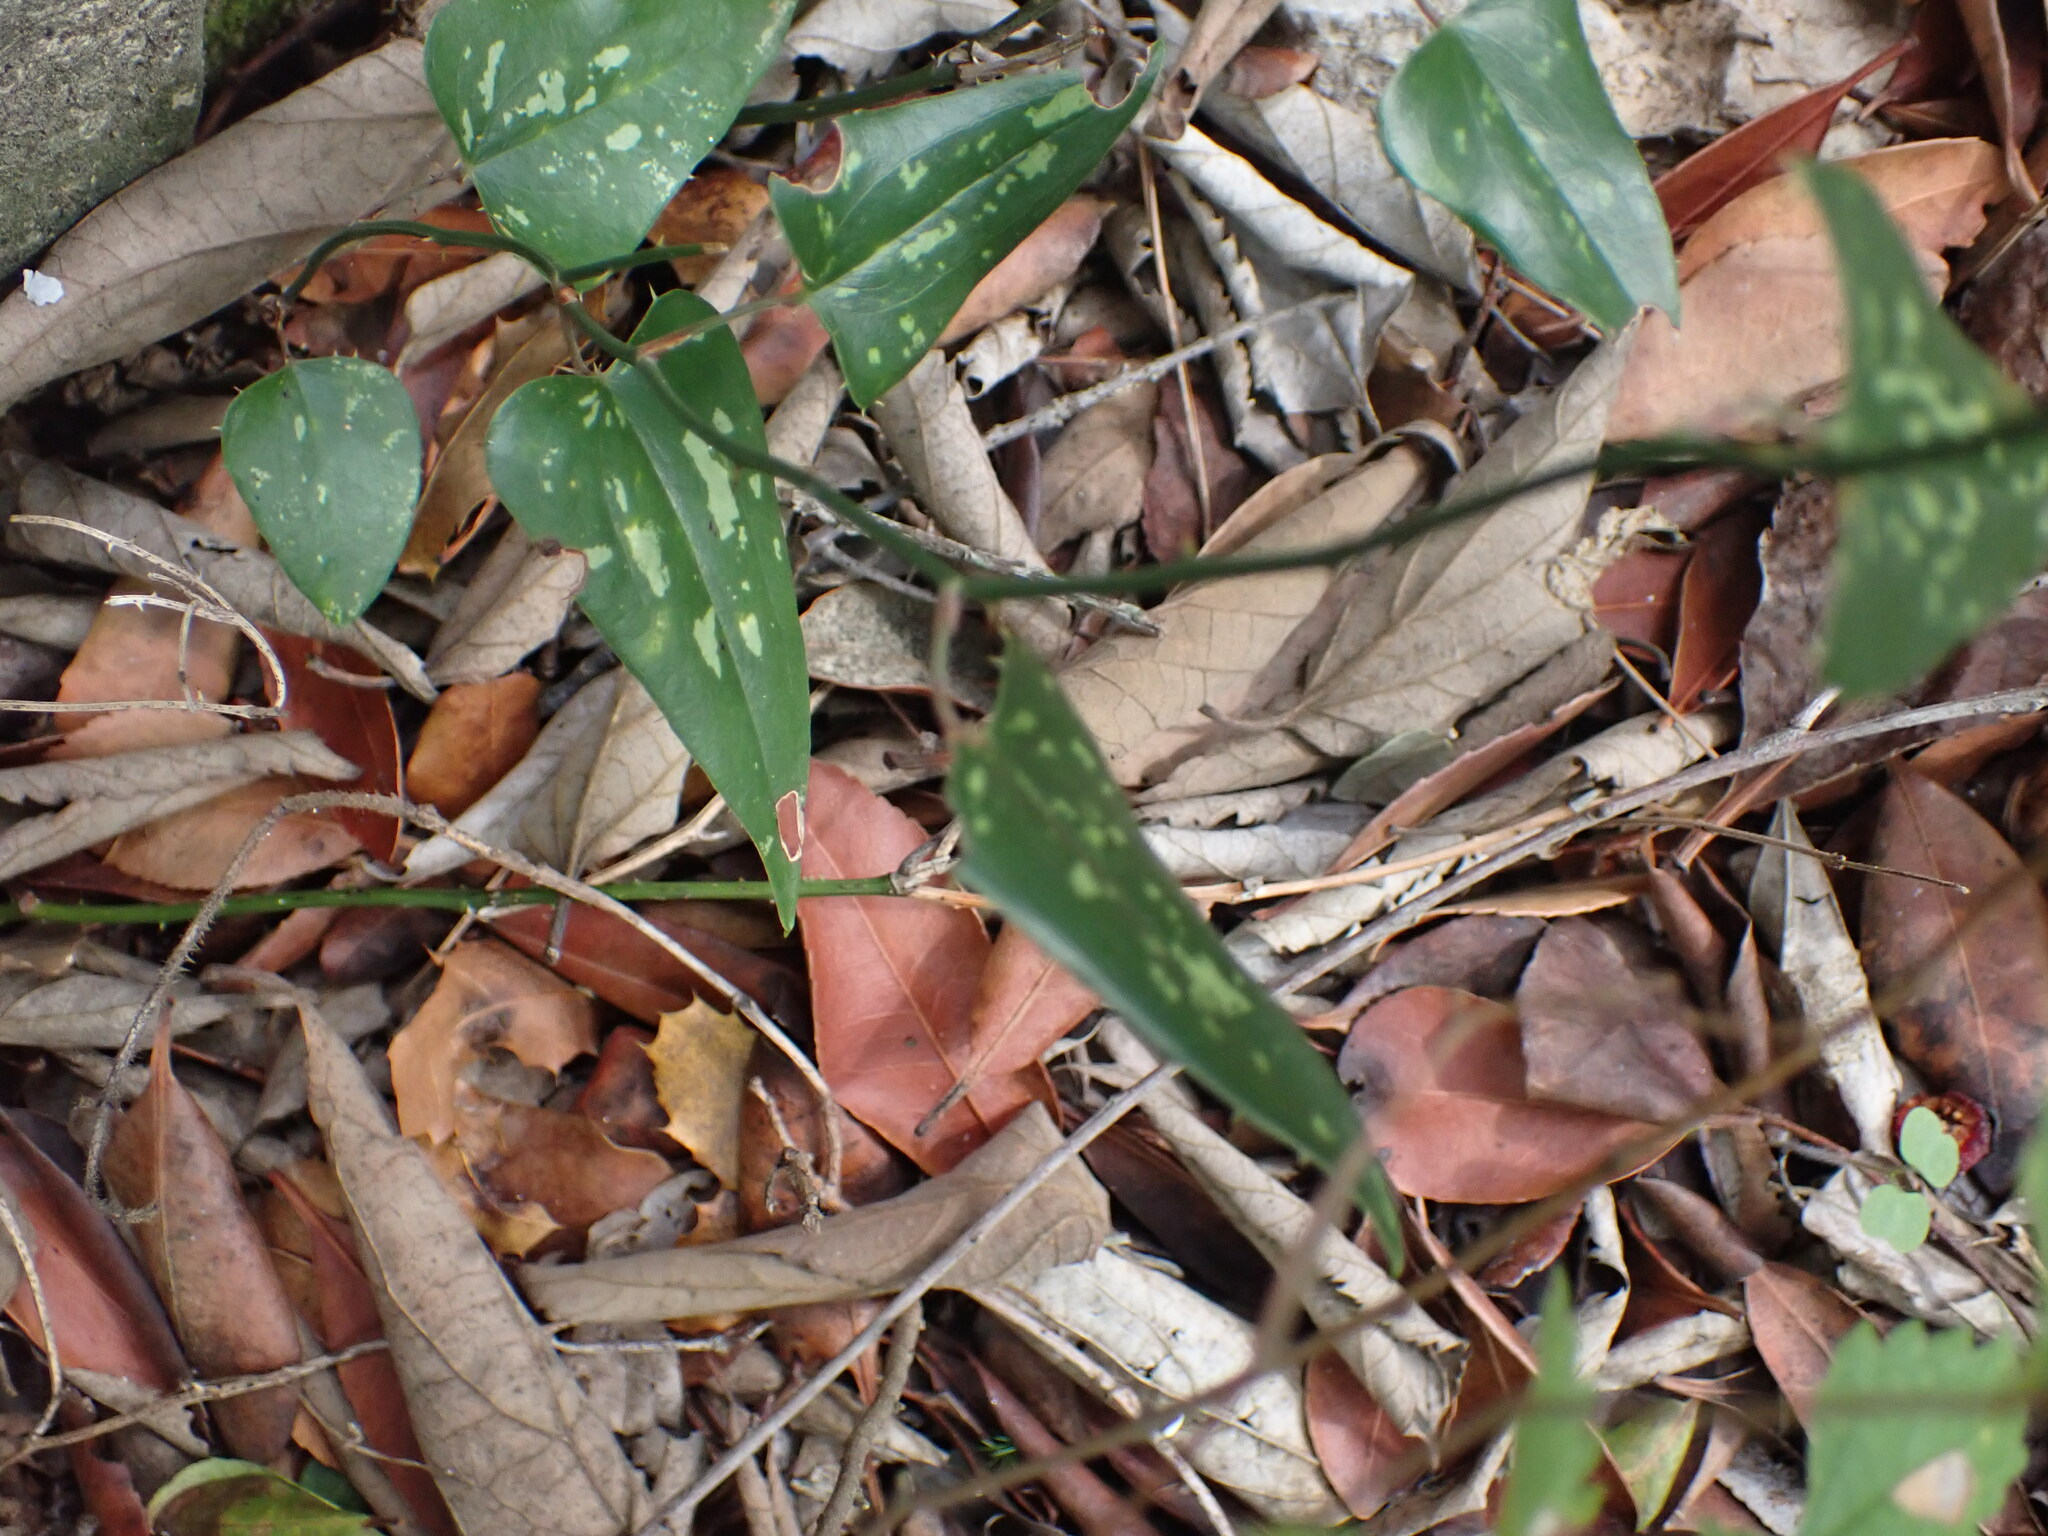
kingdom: Plantae
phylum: Tracheophyta
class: Liliopsida
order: Liliales
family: Smilacaceae
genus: Smilax
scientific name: Smilax aspera
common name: Common smilax
